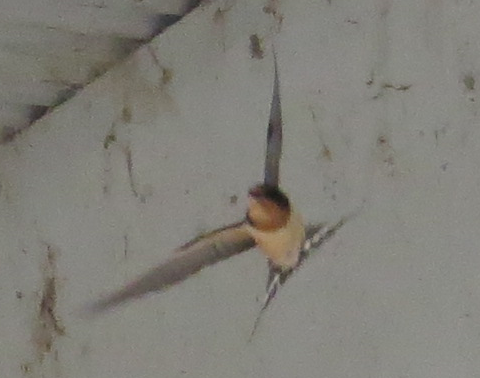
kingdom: Animalia
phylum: Chordata
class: Aves
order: Passeriformes
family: Hirundinidae
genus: Hirundo
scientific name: Hirundo rustica
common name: Barn swallow
